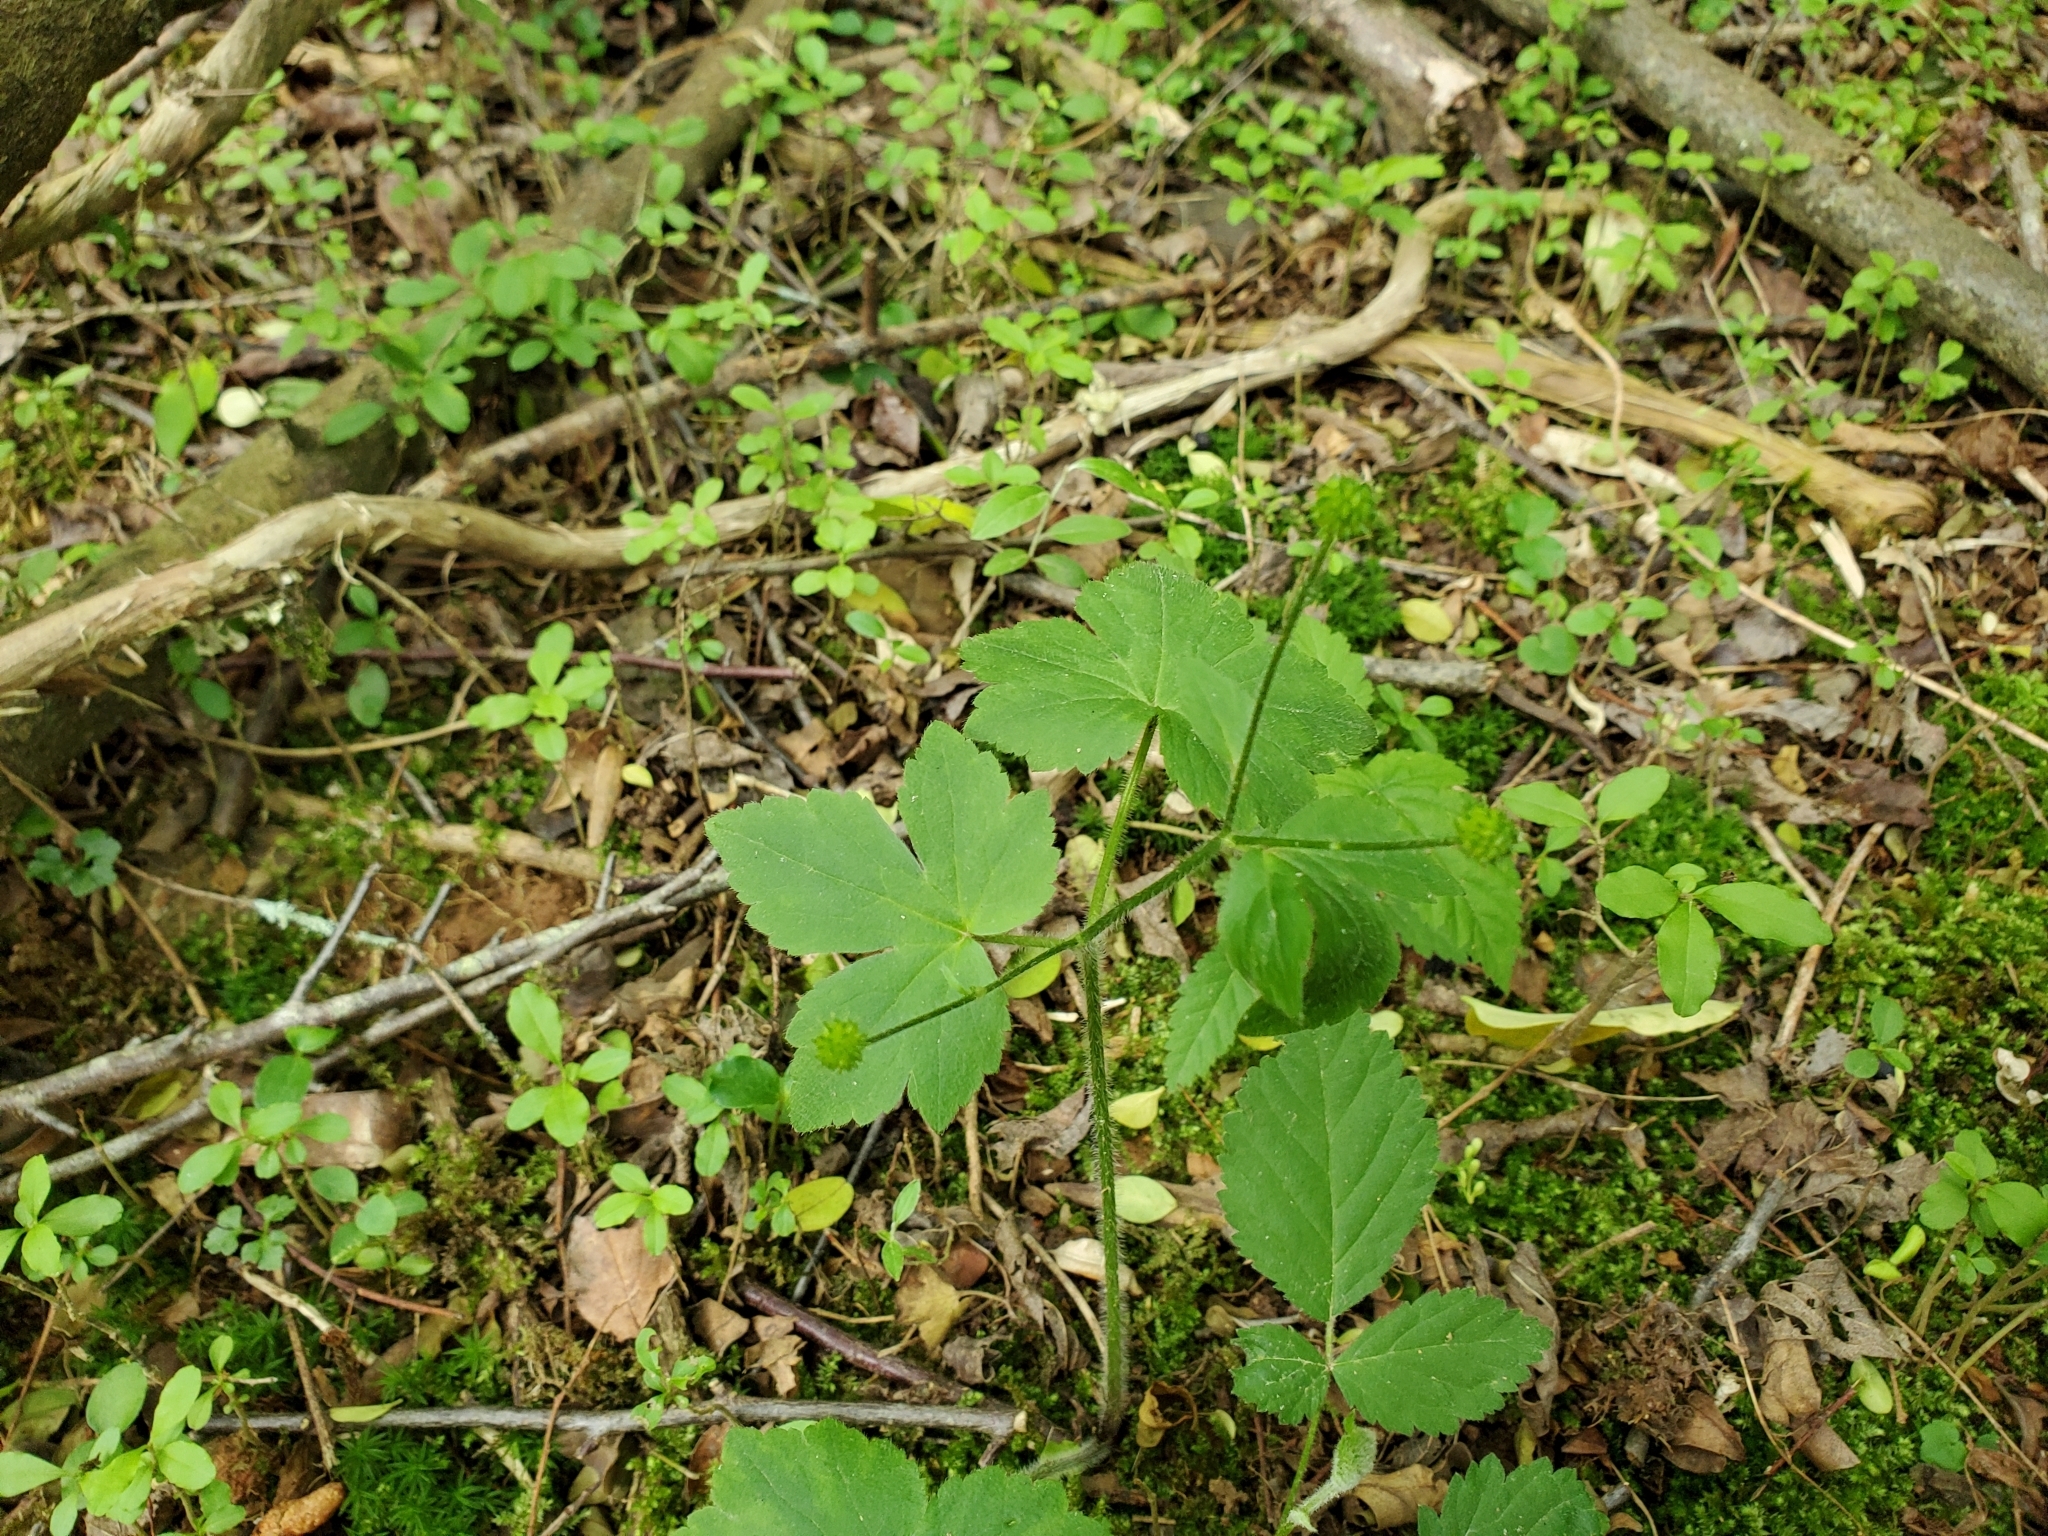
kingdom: Plantae
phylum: Tracheophyta
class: Magnoliopsida
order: Ranunculales
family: Ranunculaceae
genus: Ranunculus
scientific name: Ranunculus recurvatus
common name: Blisterwort
